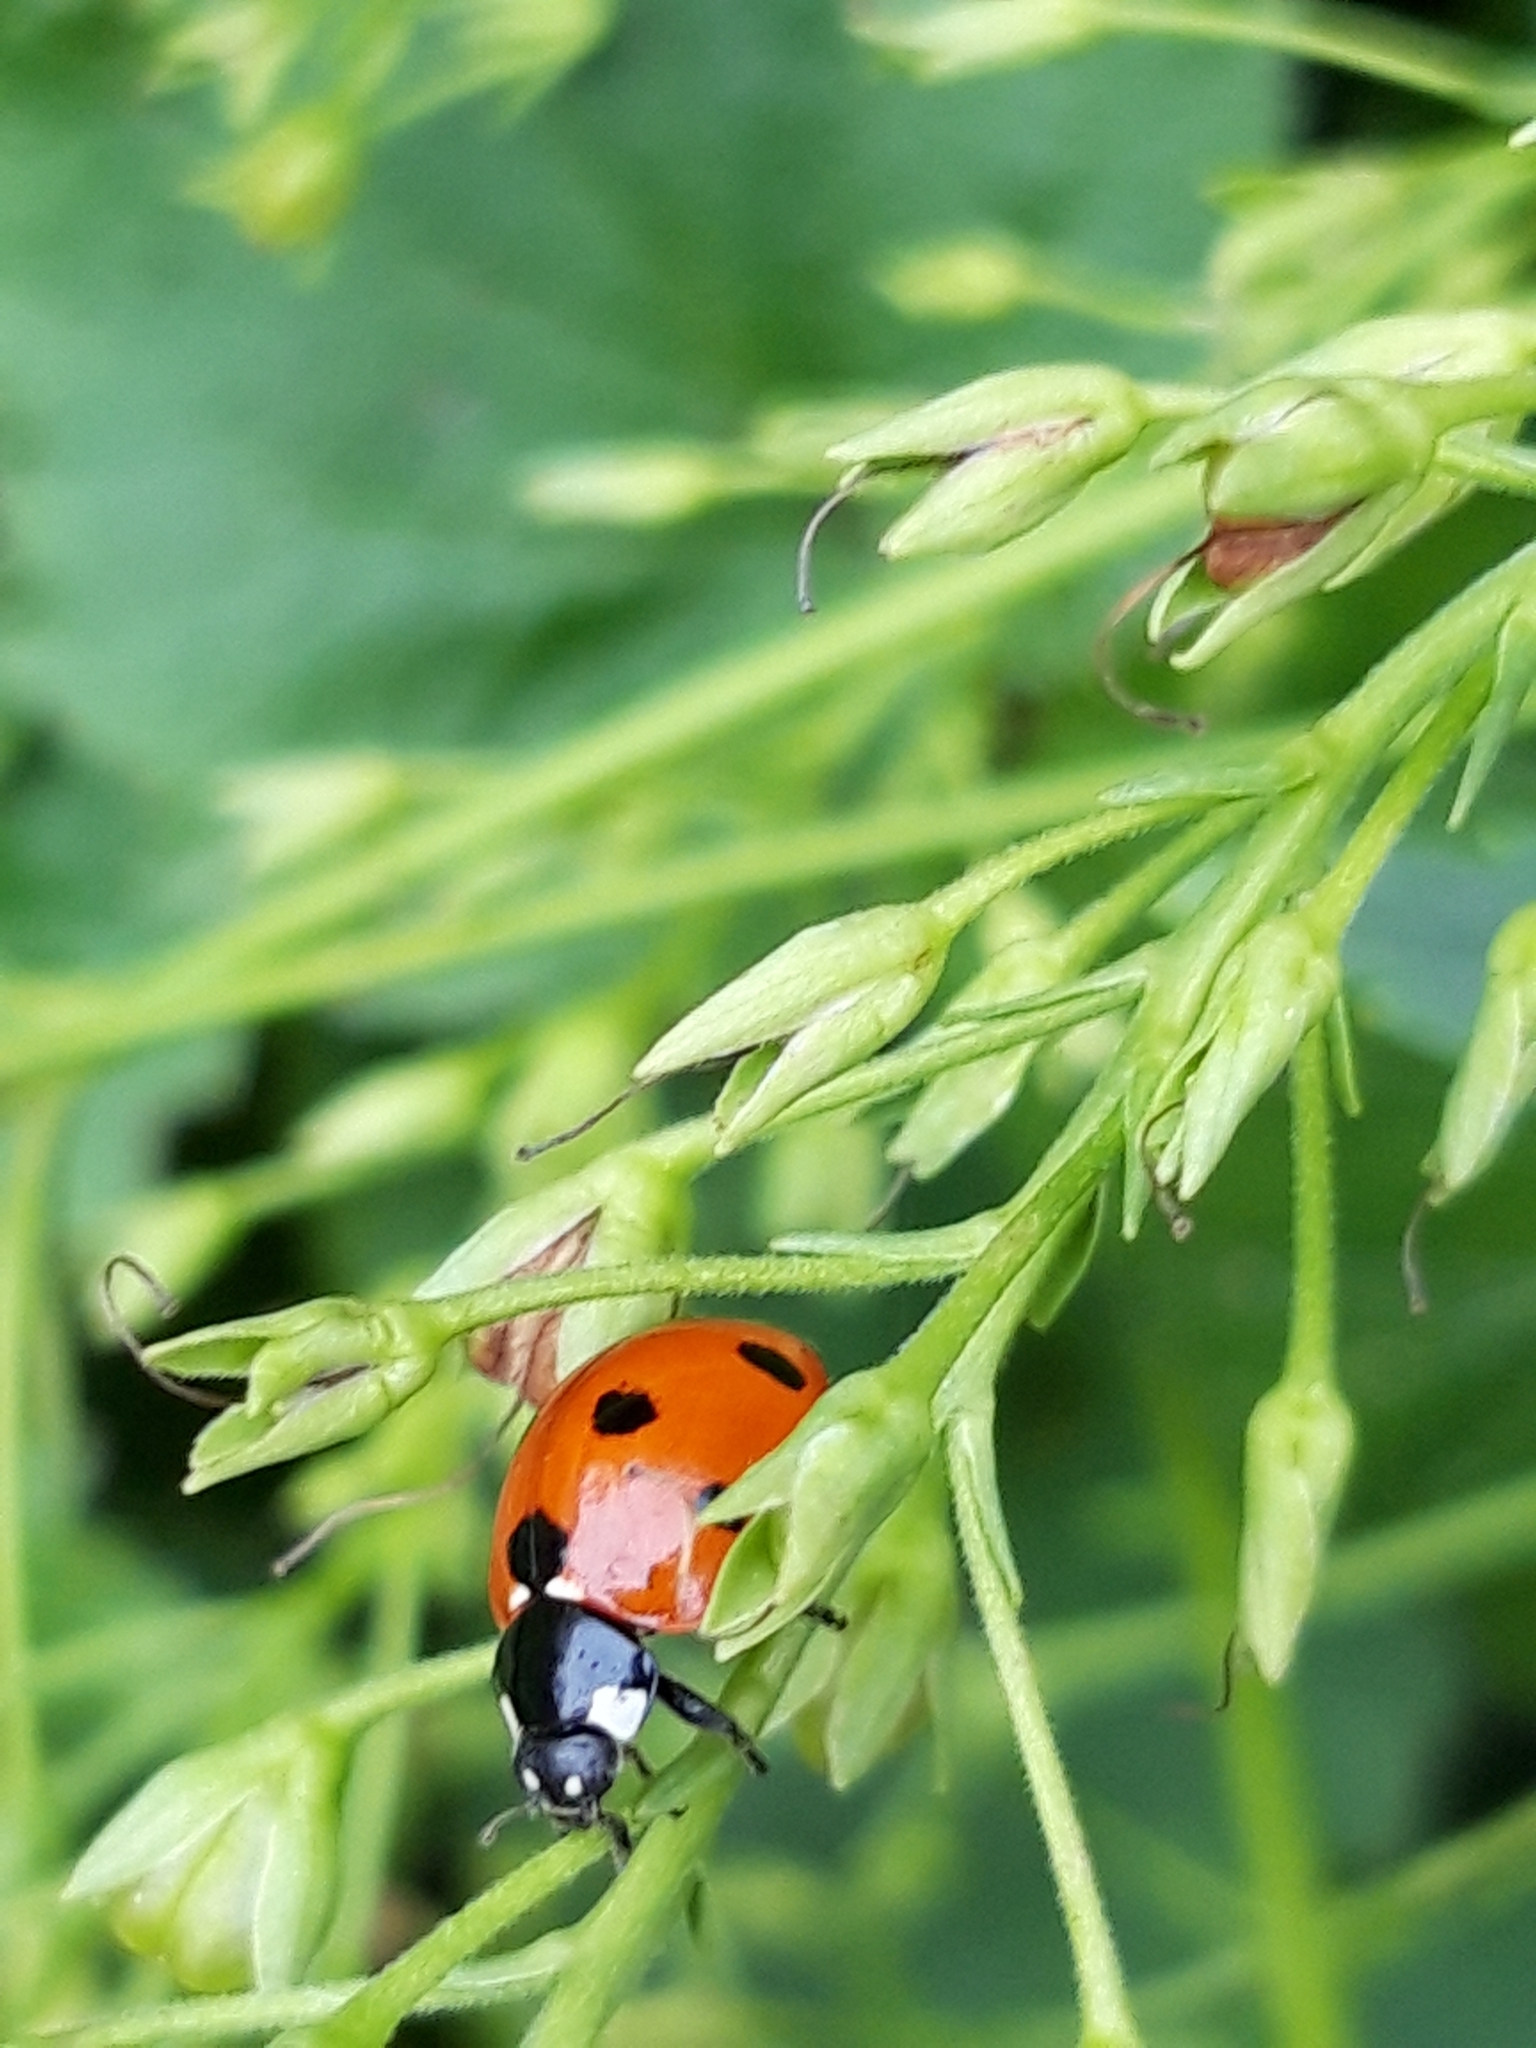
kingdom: Animalia
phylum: Arthropoda
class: Insecta
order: Coleoptera
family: Coccinellidae
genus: Coccinella
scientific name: Coccinella septempunctata
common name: Sevenspotted lady beetle
